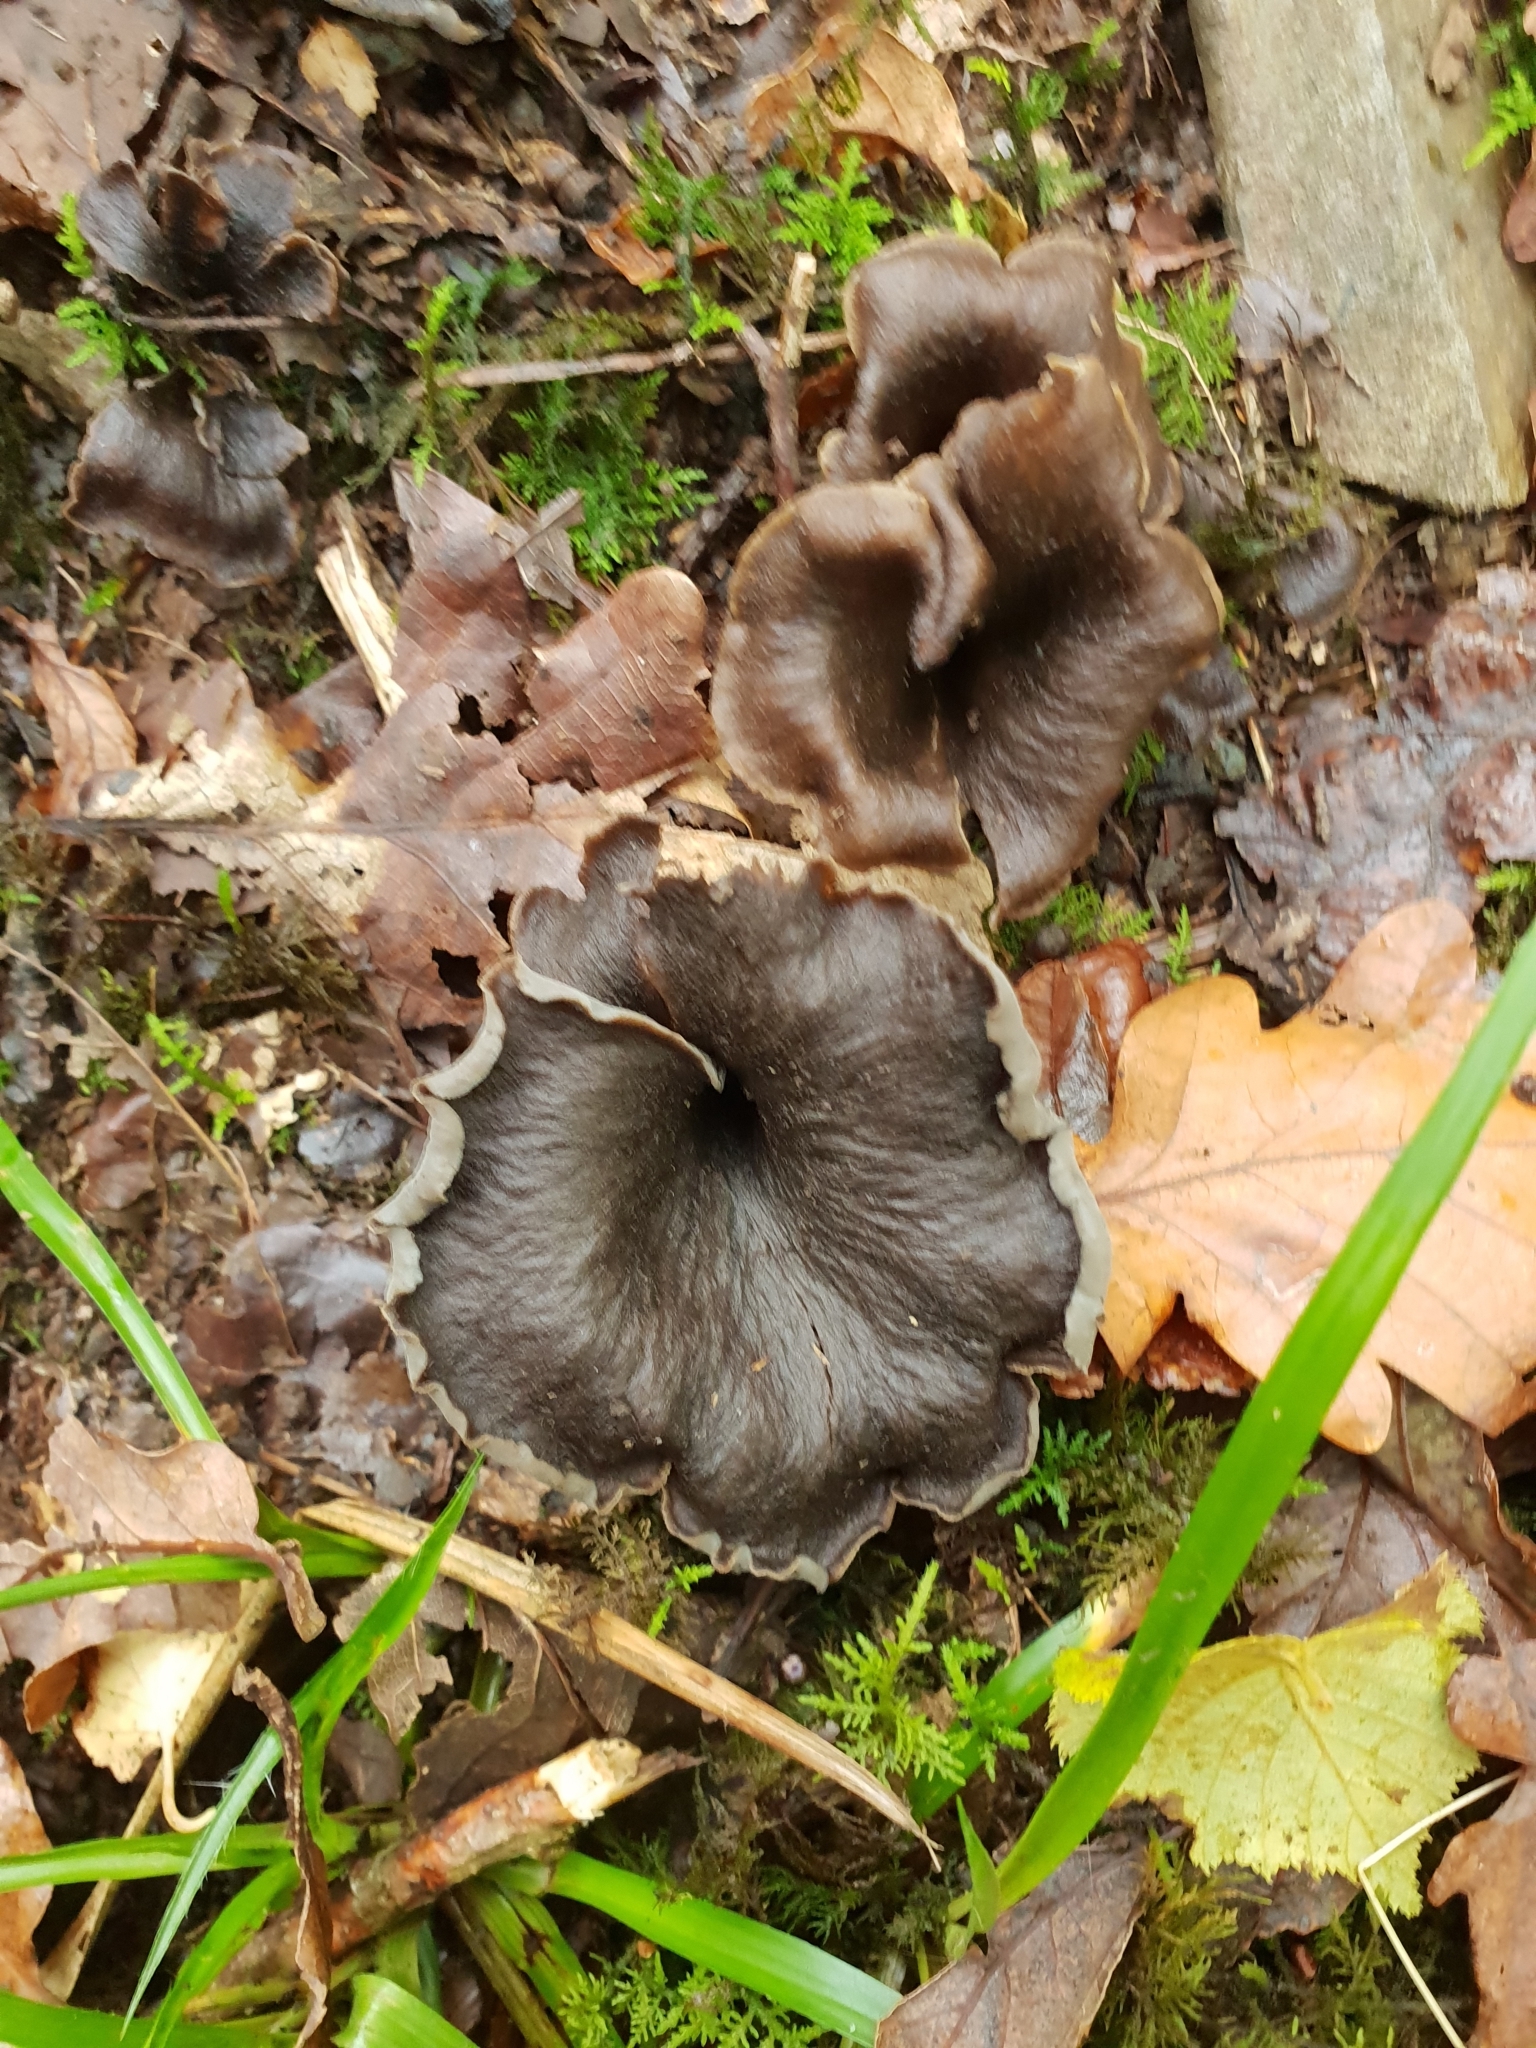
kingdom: Fungi
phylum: Basidiomycota
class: Agaricomycetes
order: Cantharellales
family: Hydnaceae
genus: Craterellus
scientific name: Craterellus cornucopioides
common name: Horn of plenty
